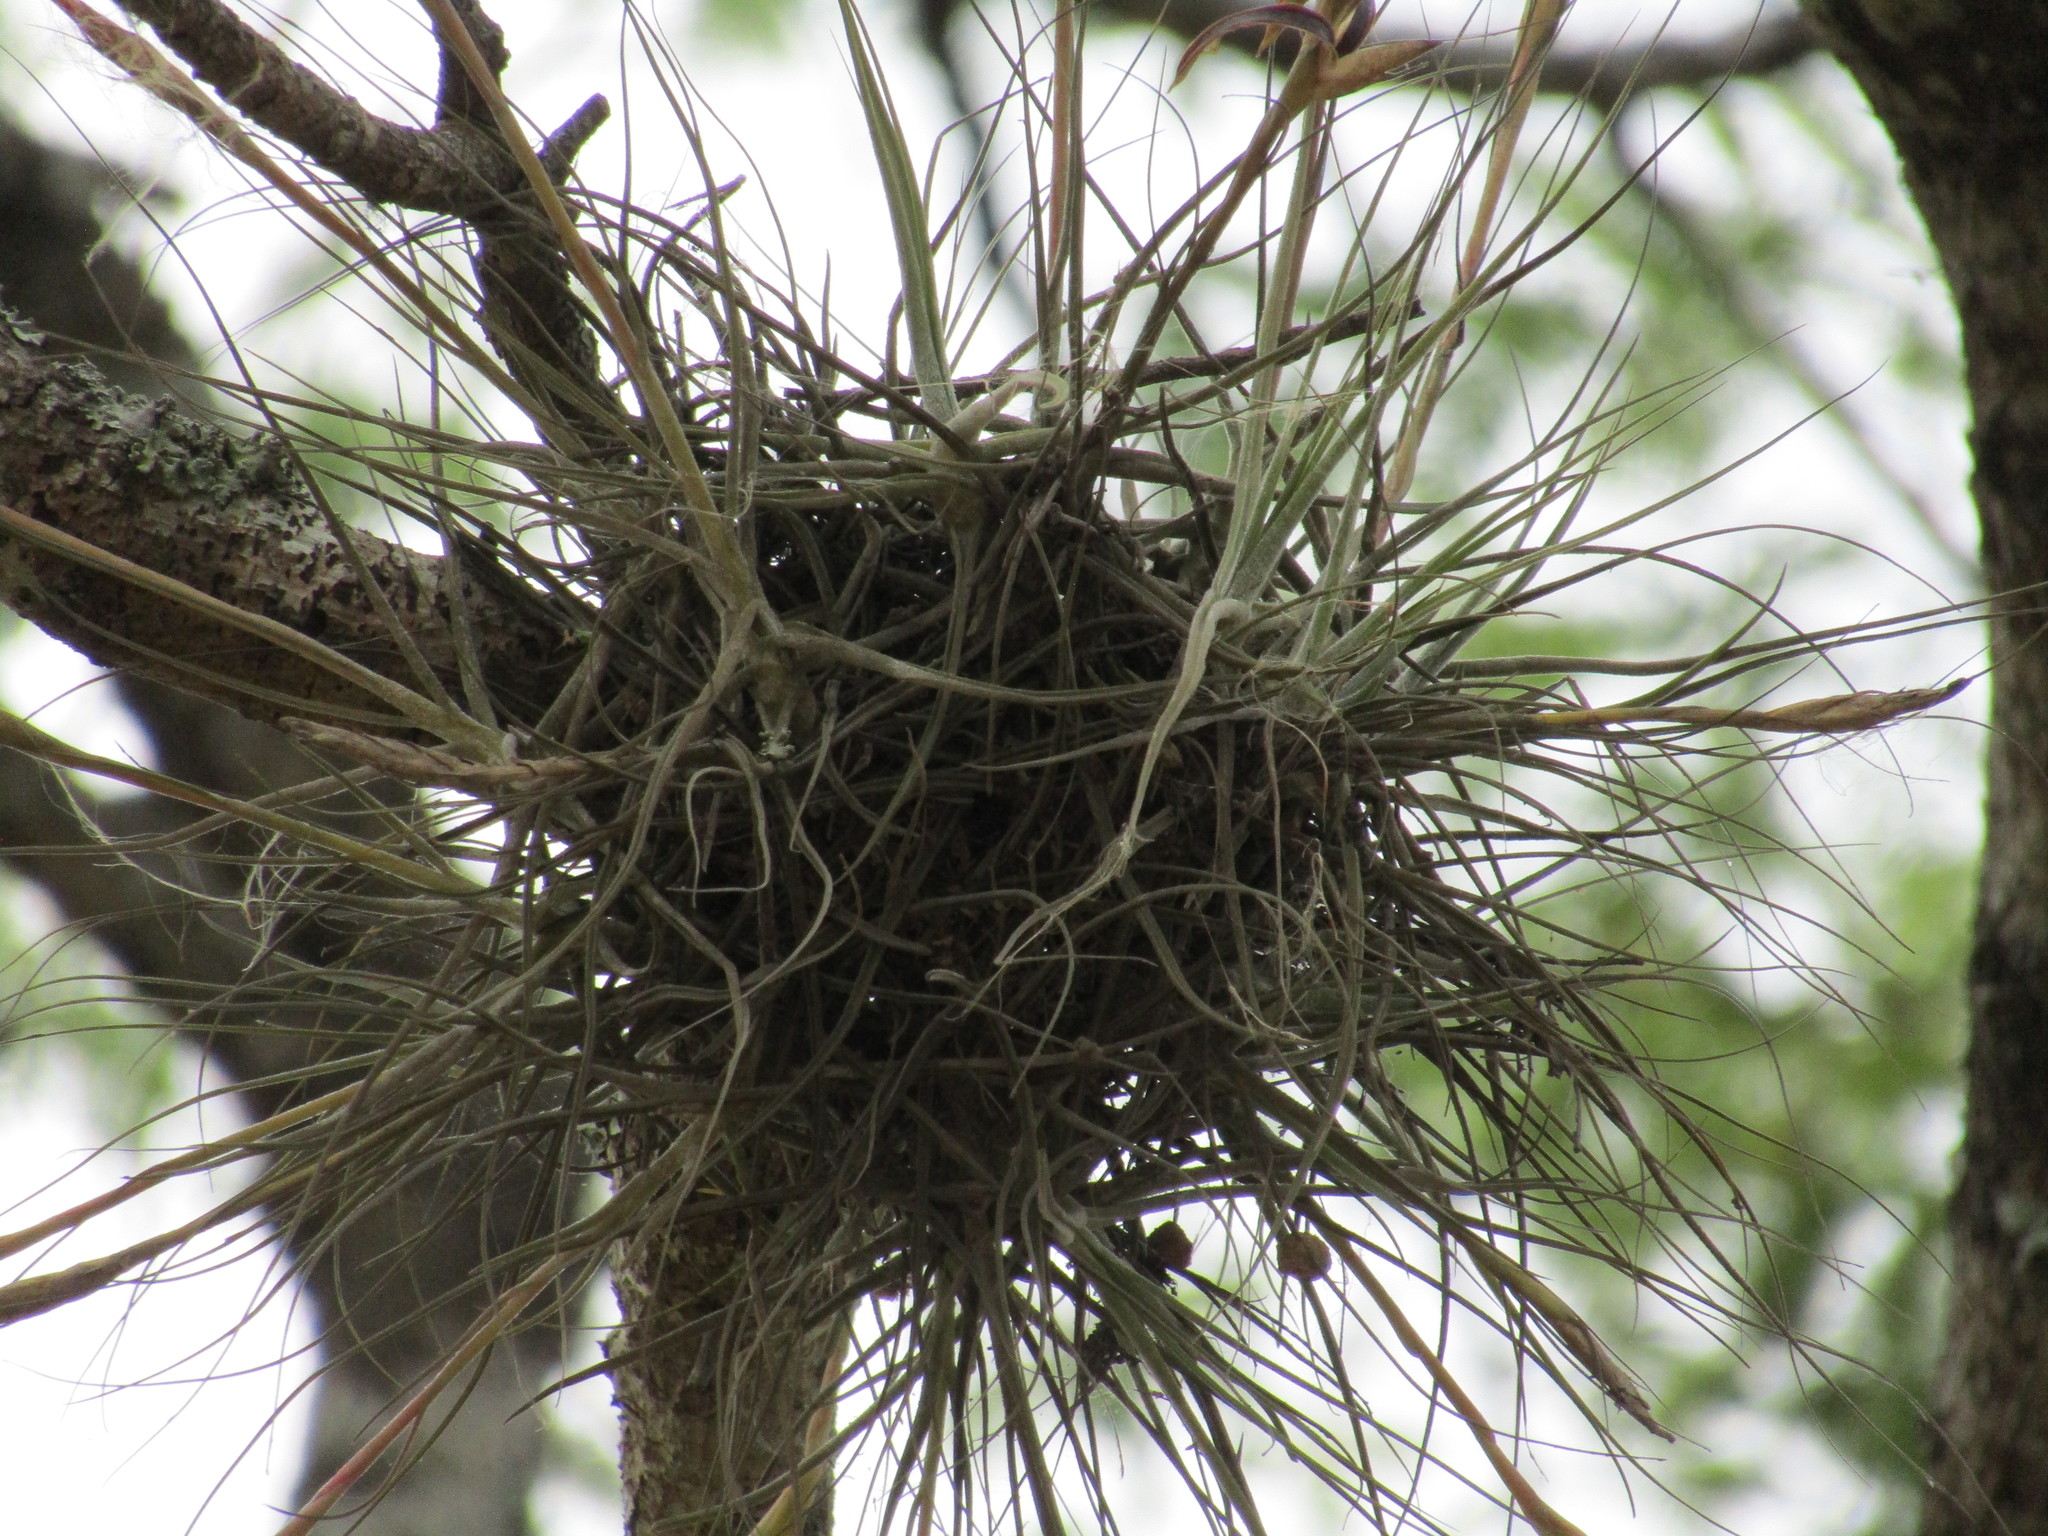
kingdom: Plantae
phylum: Tracheophyta
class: Liliopsida
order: Poales
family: Bromeliaceae
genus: Tillandsia
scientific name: Tillandsia recurvata
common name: Small ballmoss
